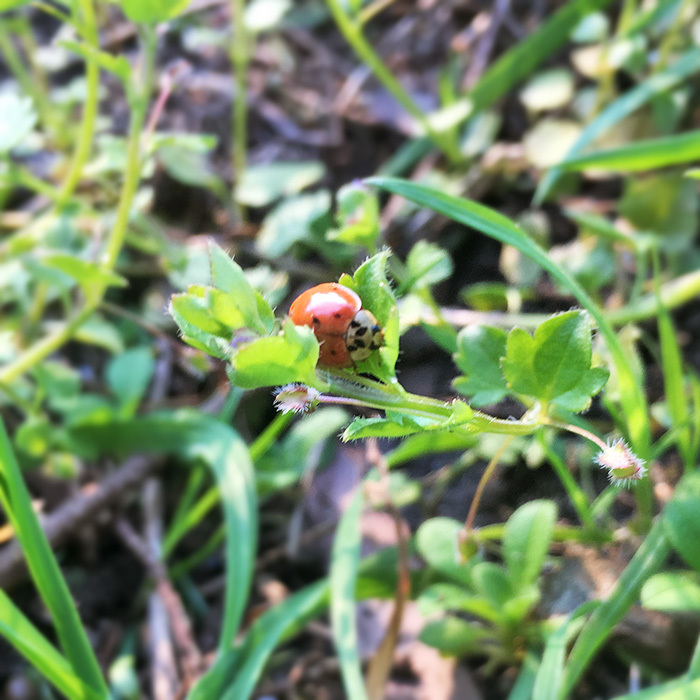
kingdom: Animalia
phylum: Arthropoda
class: Insecta
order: Coleoptera
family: Coccinellidae
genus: Harmonia
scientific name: Harmonia axyridis
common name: Harlequin ladybird
